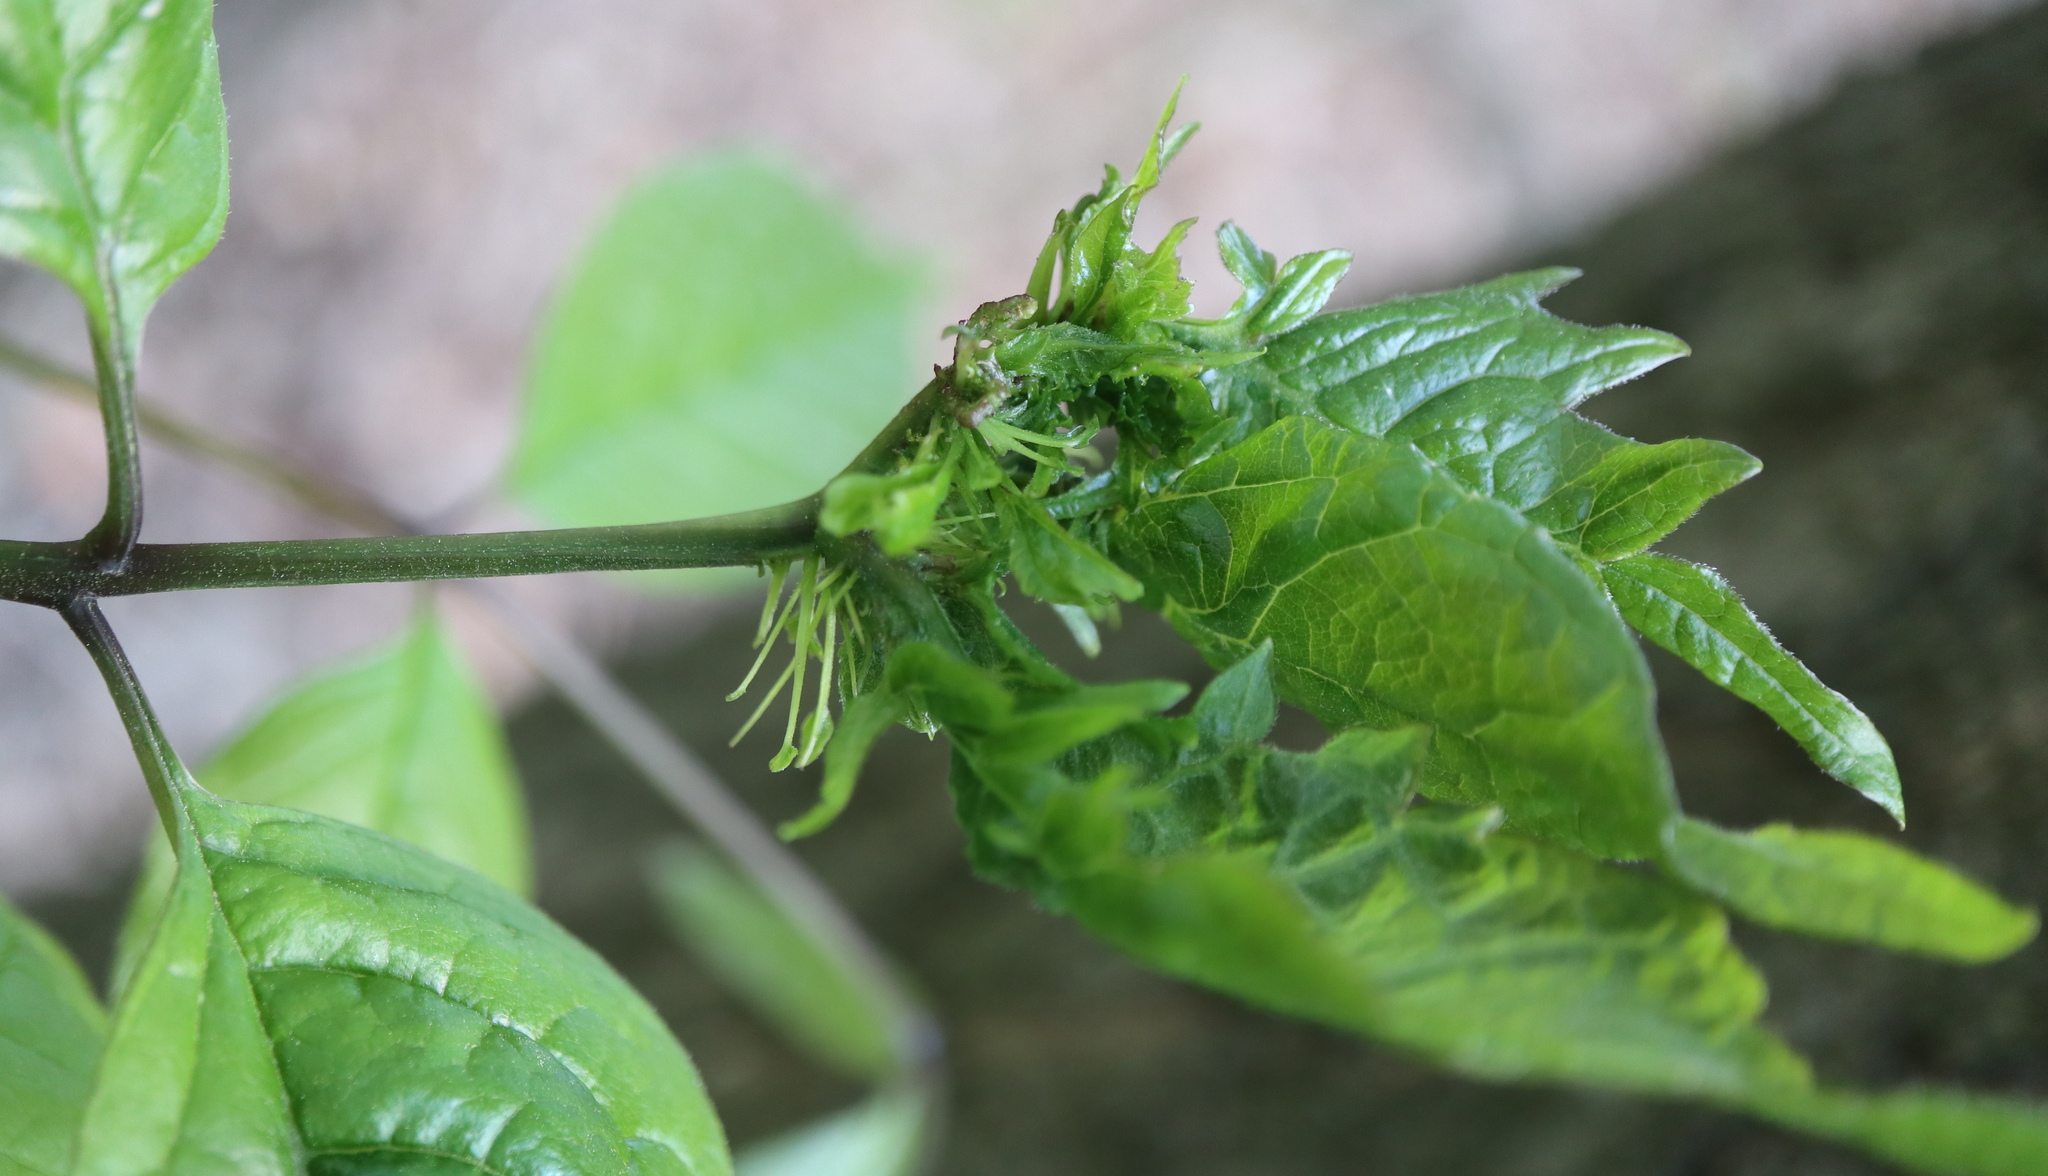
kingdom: Bacteria
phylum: Firmicutes
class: Bacilli
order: Acholeplasmatales
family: Acholeplasmataceae
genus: Phytoplasma
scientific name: Phytoplasma
